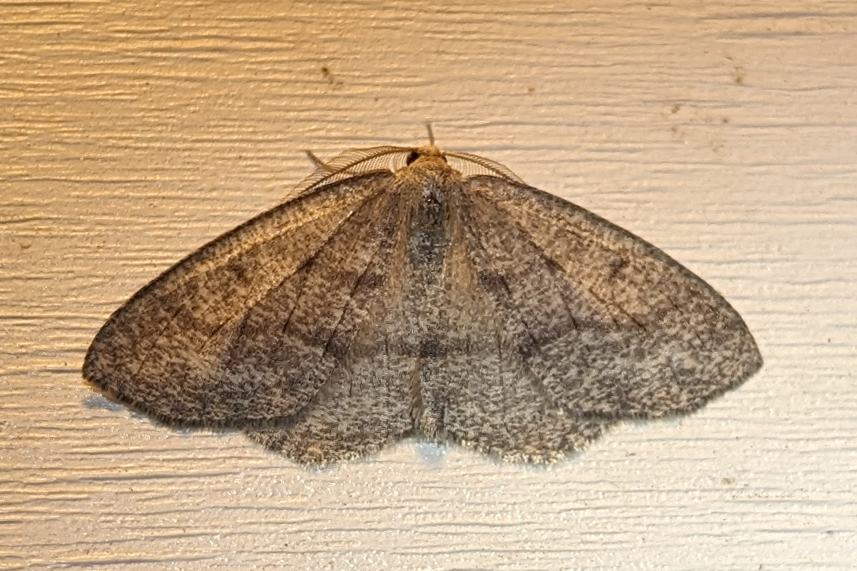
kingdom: Animalia
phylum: Arthropoda
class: Insecta
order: Lepidoptera
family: Geometridae
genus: Lambdina
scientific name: Lambdina fervidaria
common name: Curve-lined looper moth
